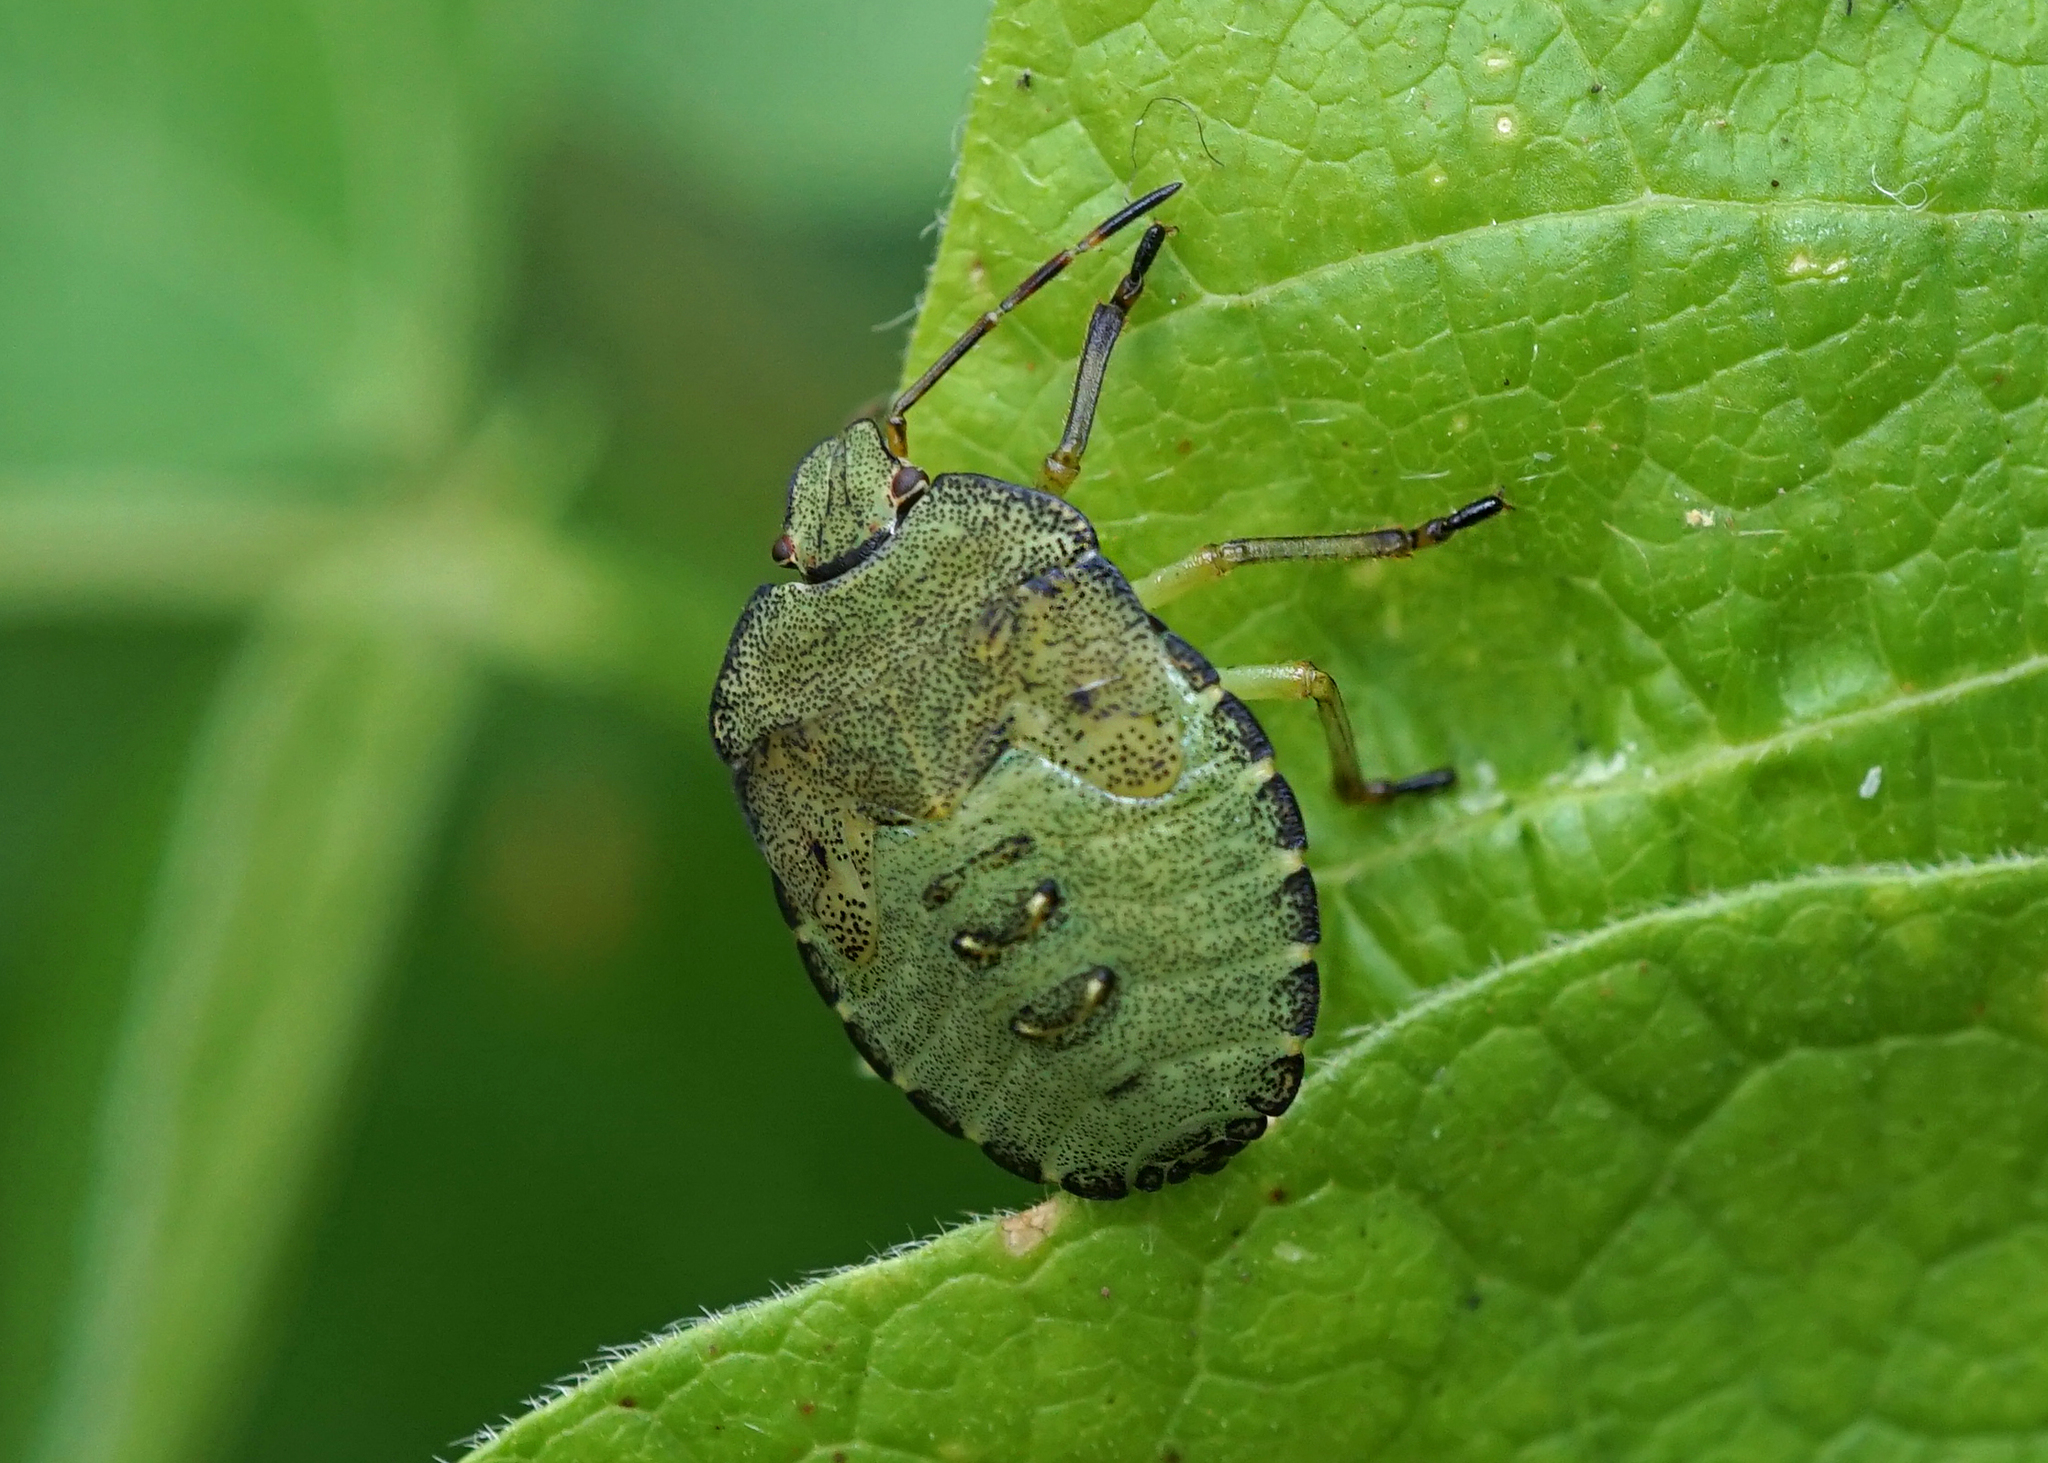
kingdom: Animalia
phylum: Arthropoda
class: Insecta
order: Hemiptera
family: Pentatomidae
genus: Palomena
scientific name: Palomena prasina
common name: Green shieldbug
